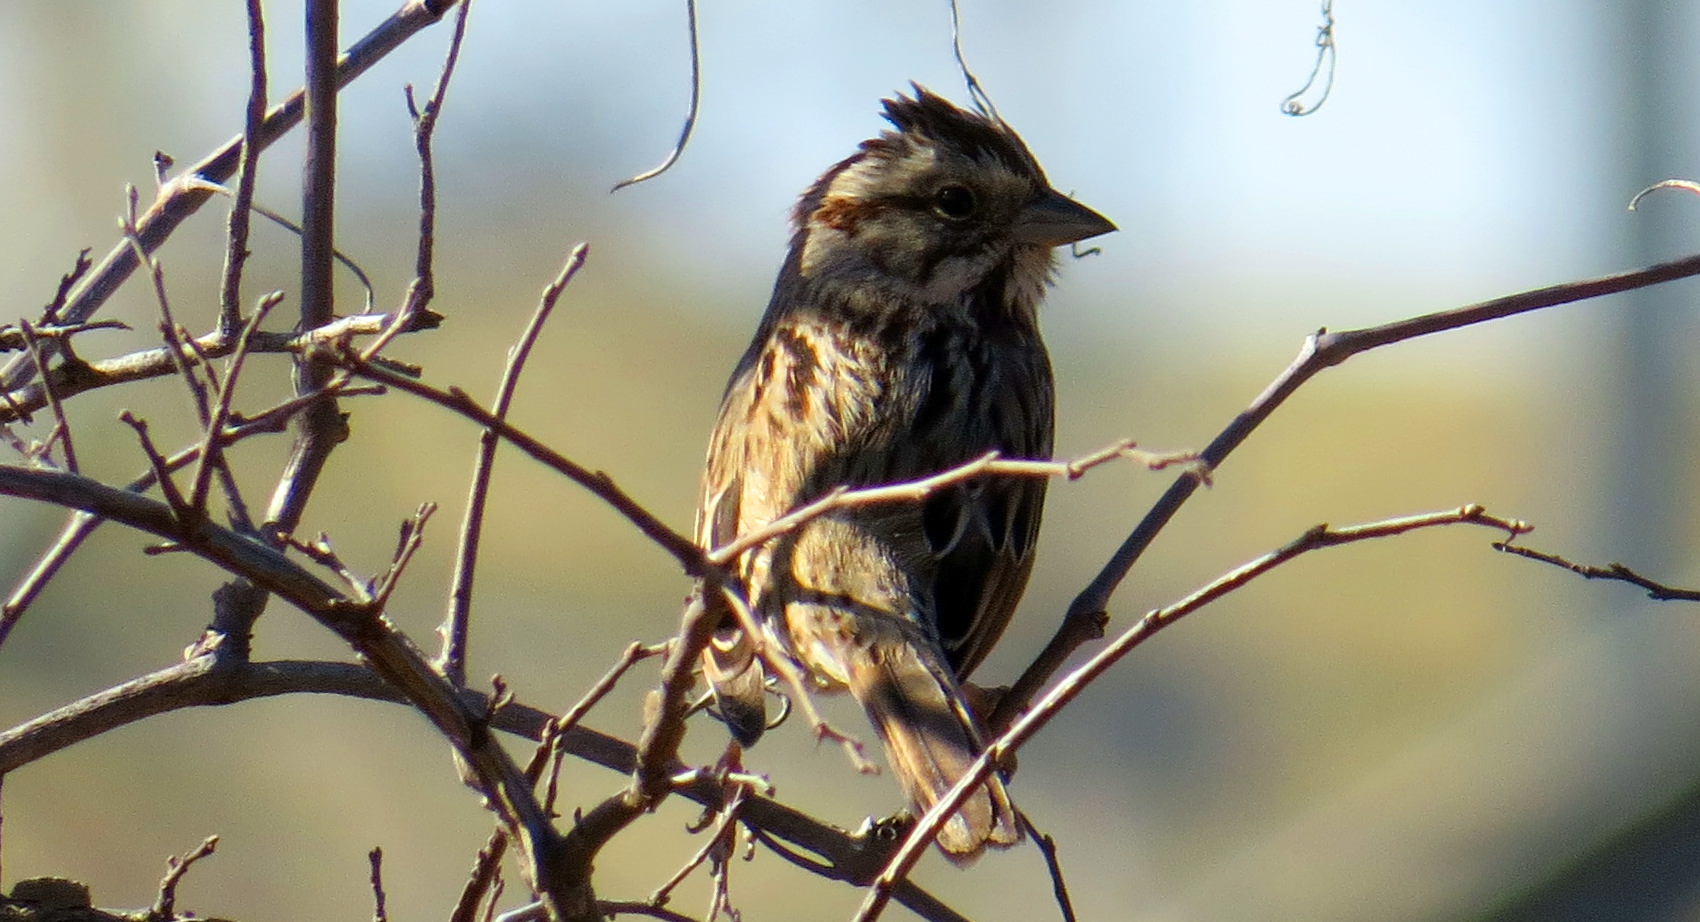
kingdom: Animalia
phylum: Chordata
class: Aves
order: Passeriformes
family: Passerellidae
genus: Melospiza
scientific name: Melospiza melodia
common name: Song sparrow
